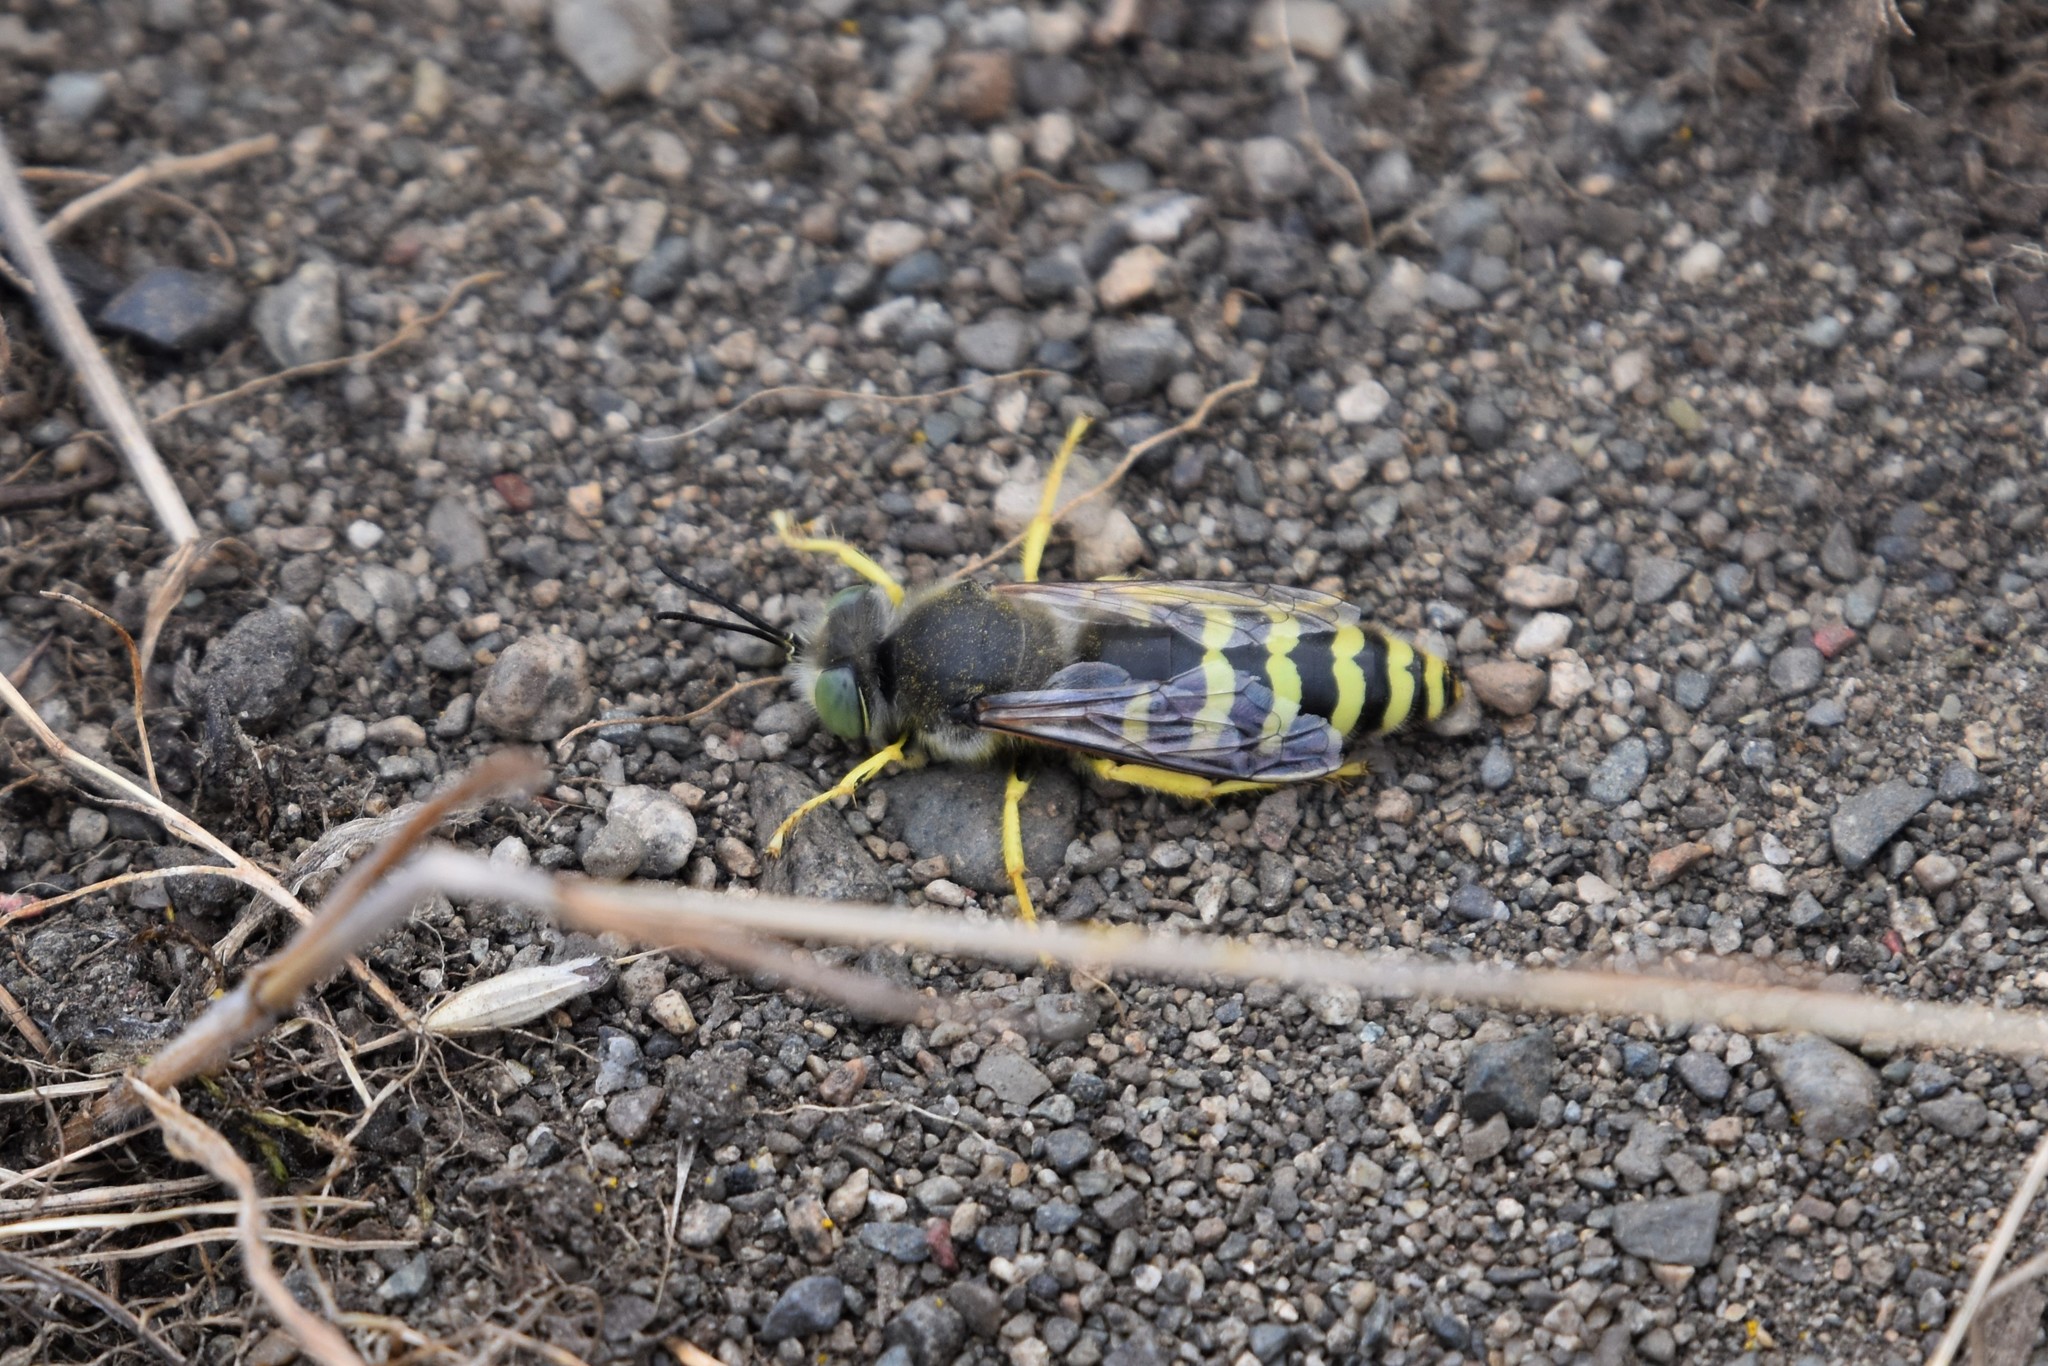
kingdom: Animalia
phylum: Arthropoda
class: Insecta
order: Hymenoptera
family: Crabronidae
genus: Bembix
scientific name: Bembix americana
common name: American sand wasp
